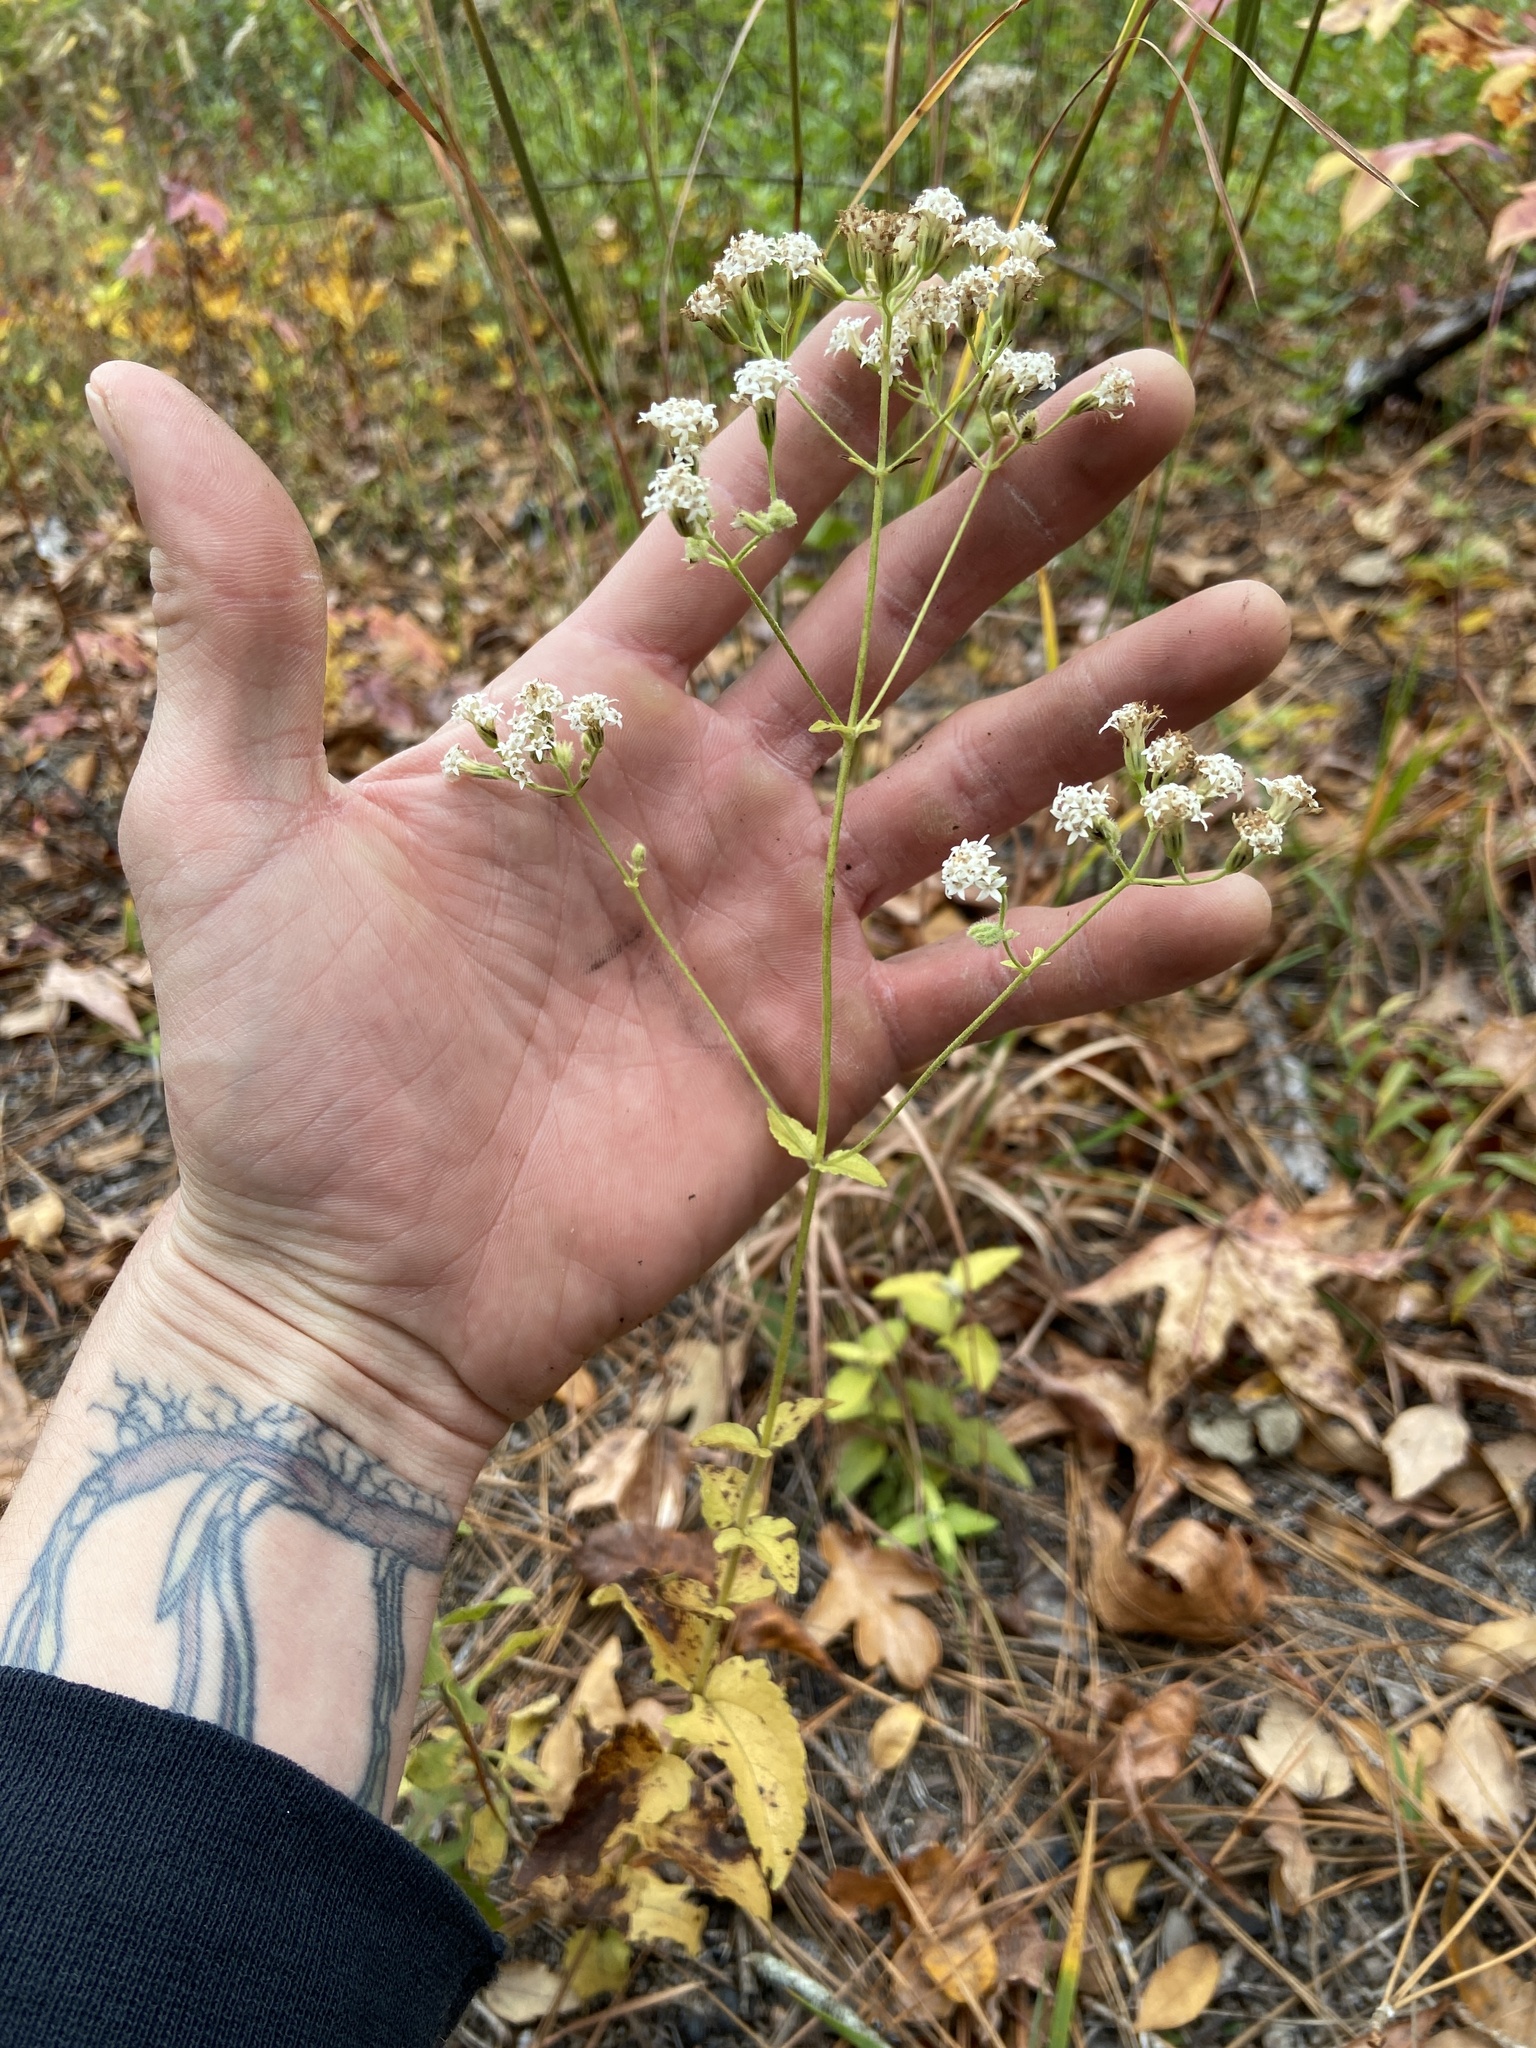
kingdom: Plantae
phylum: Tracheophyta
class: Magnoliopsida
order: Asterales
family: Asteraceae
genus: Ageratina
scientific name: Ageratina aromatica
